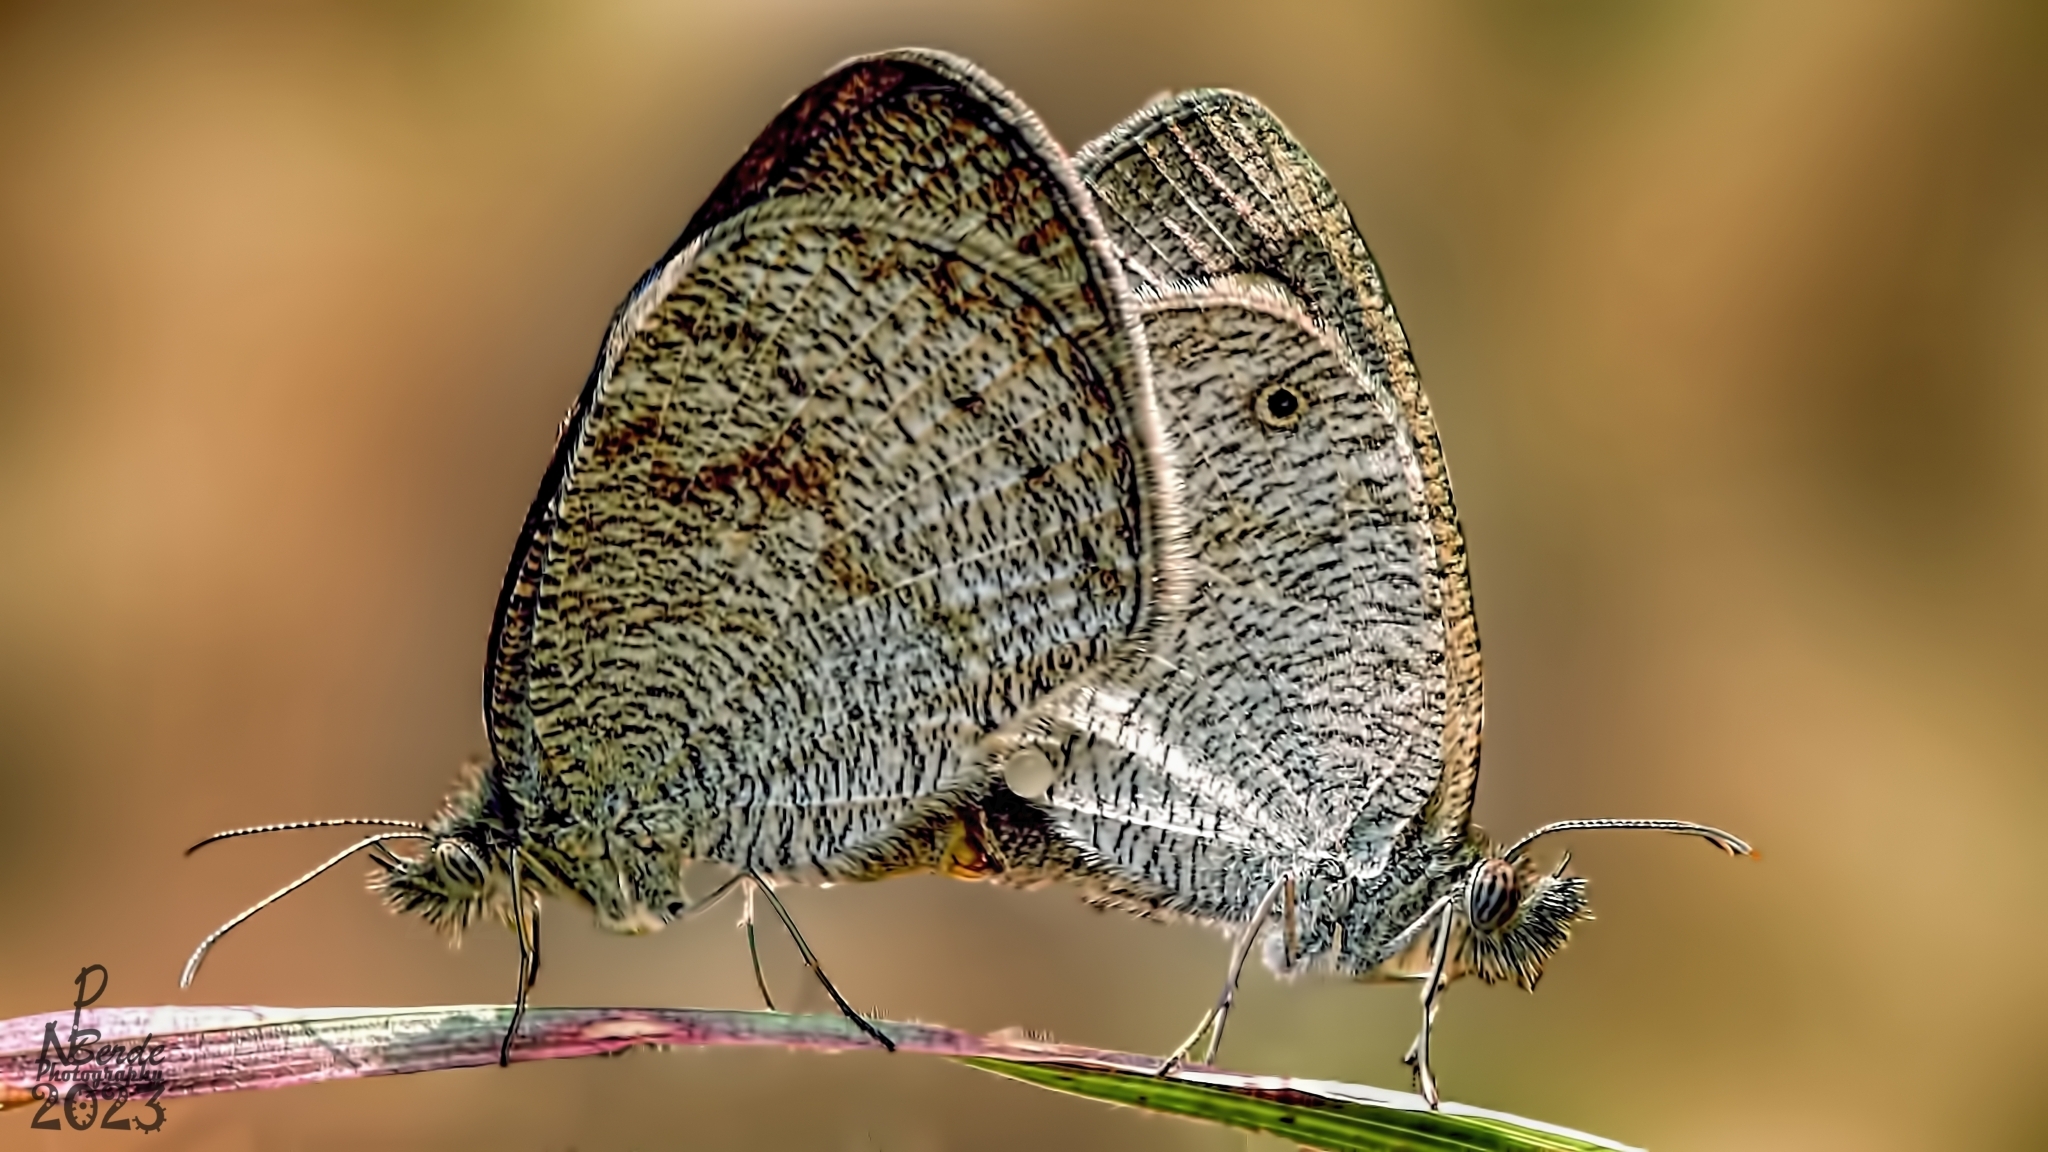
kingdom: Animalia
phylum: Arthropoda
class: Insecta
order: Lepidoptera
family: Nymphalidae
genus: Ypthima
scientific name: Ypthima asterope
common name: African ringlet
